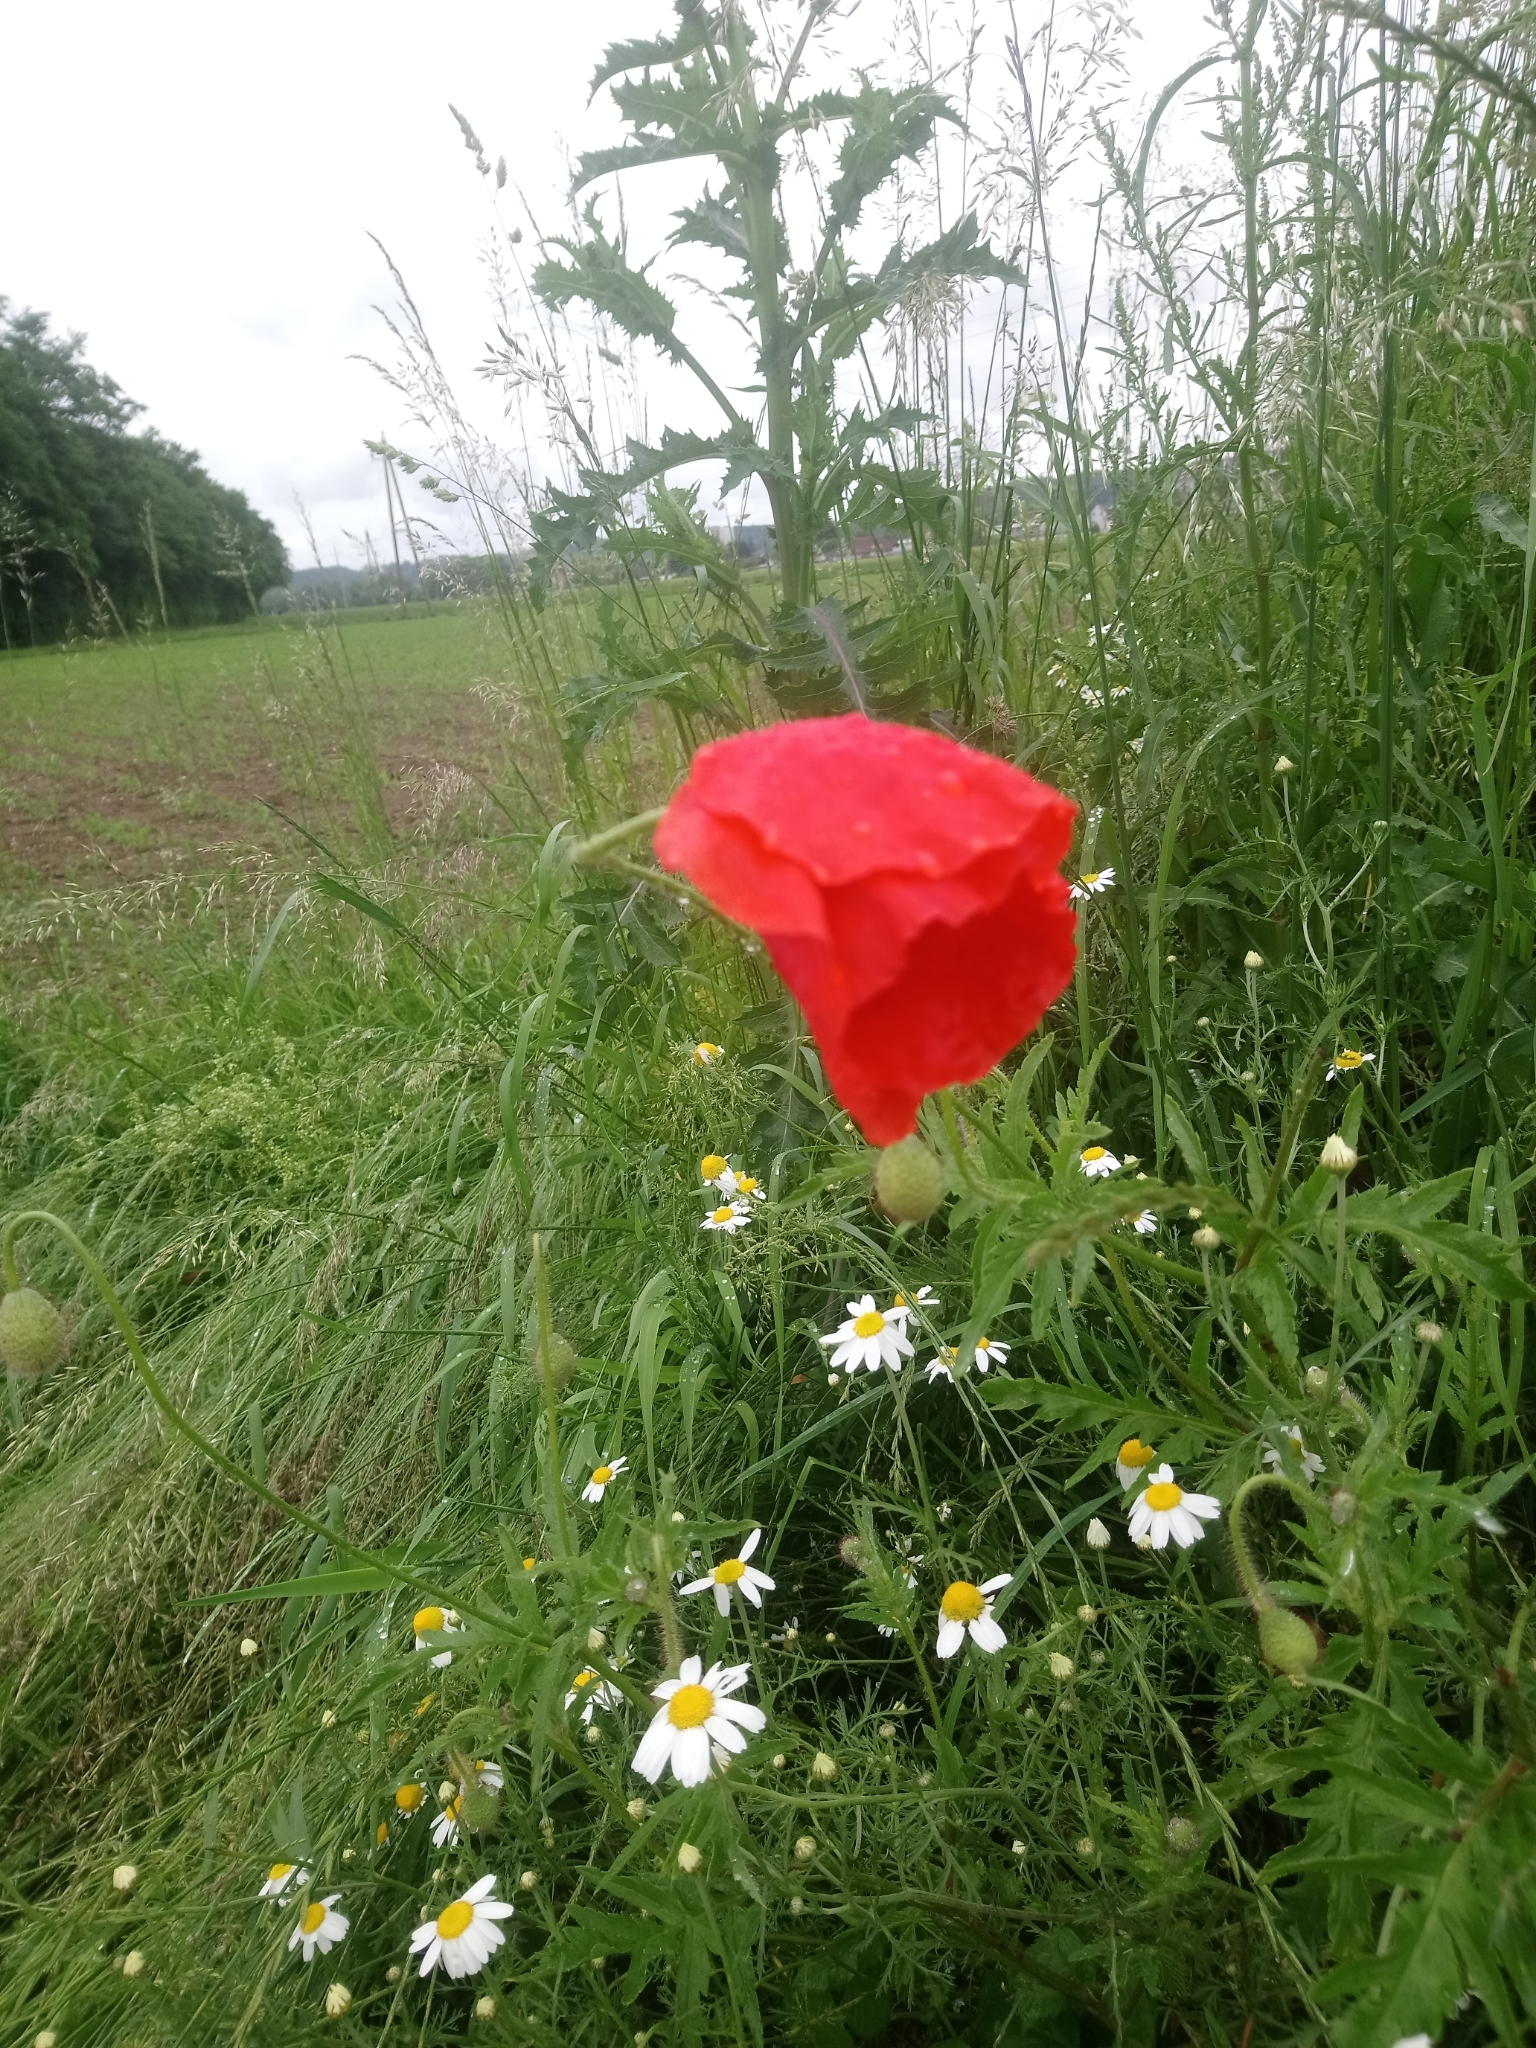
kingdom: Plantae
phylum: Tracheophyta
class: Magnoliopsida
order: Ranunculales
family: Papaveraceae
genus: Papaver
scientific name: Papaver rhoeas
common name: Corn poppy
